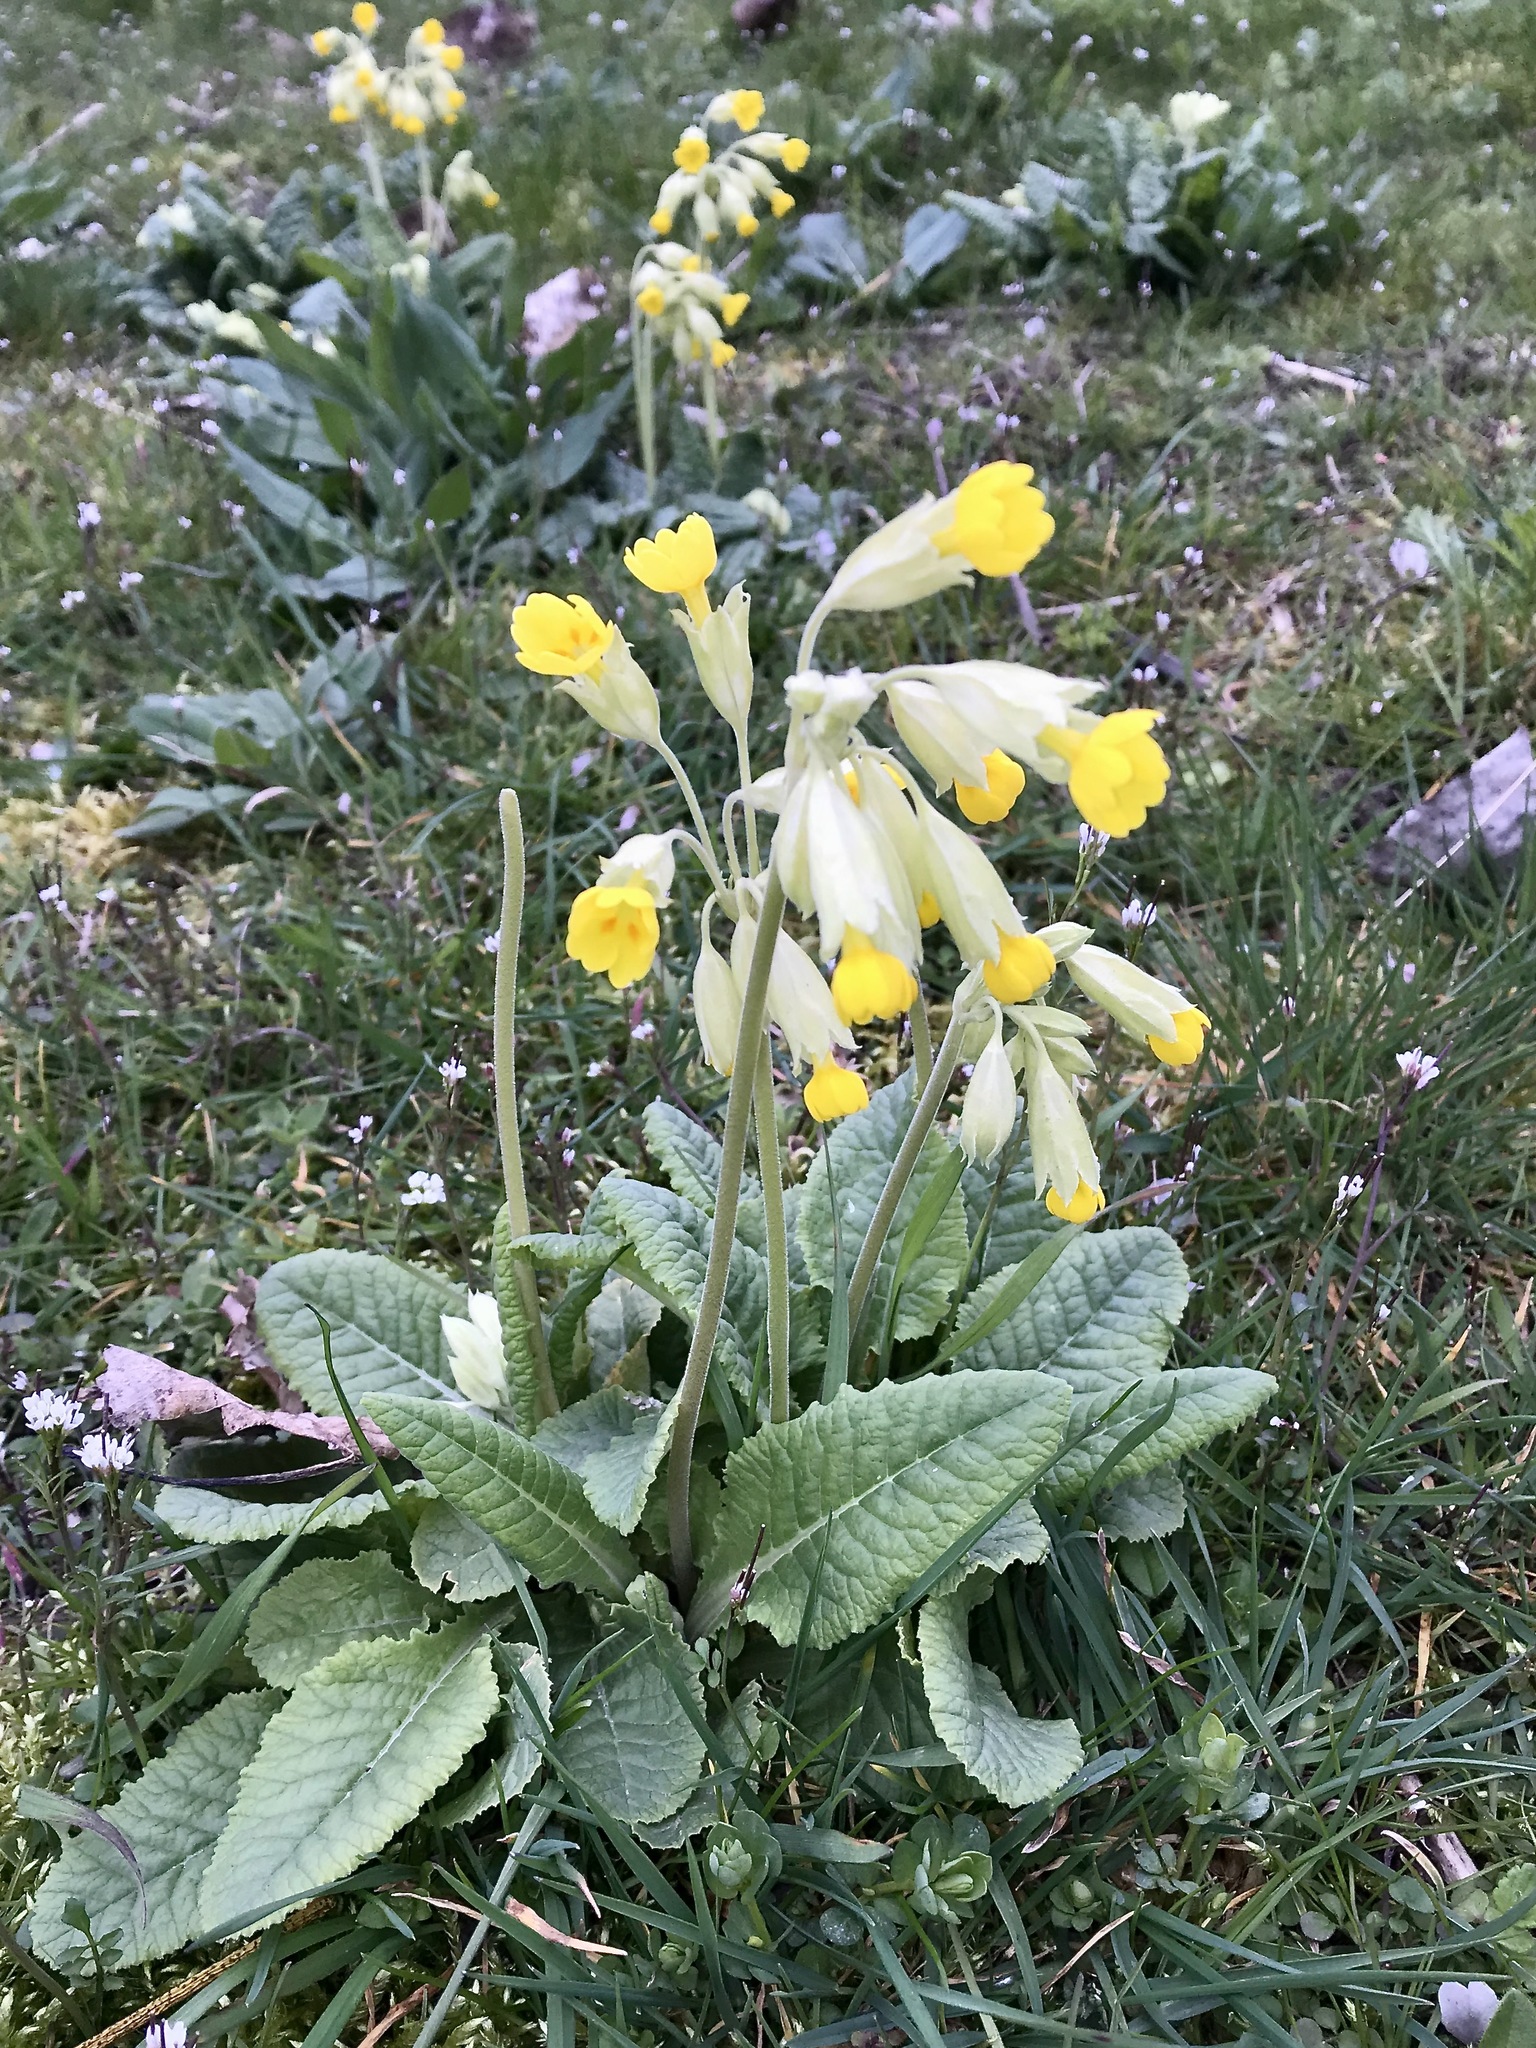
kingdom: Plantae
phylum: Tracheophyta
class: Magnoliopsida
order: Ericales
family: Primulaceae
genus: Primula
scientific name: Primula veris
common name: Cowslip
